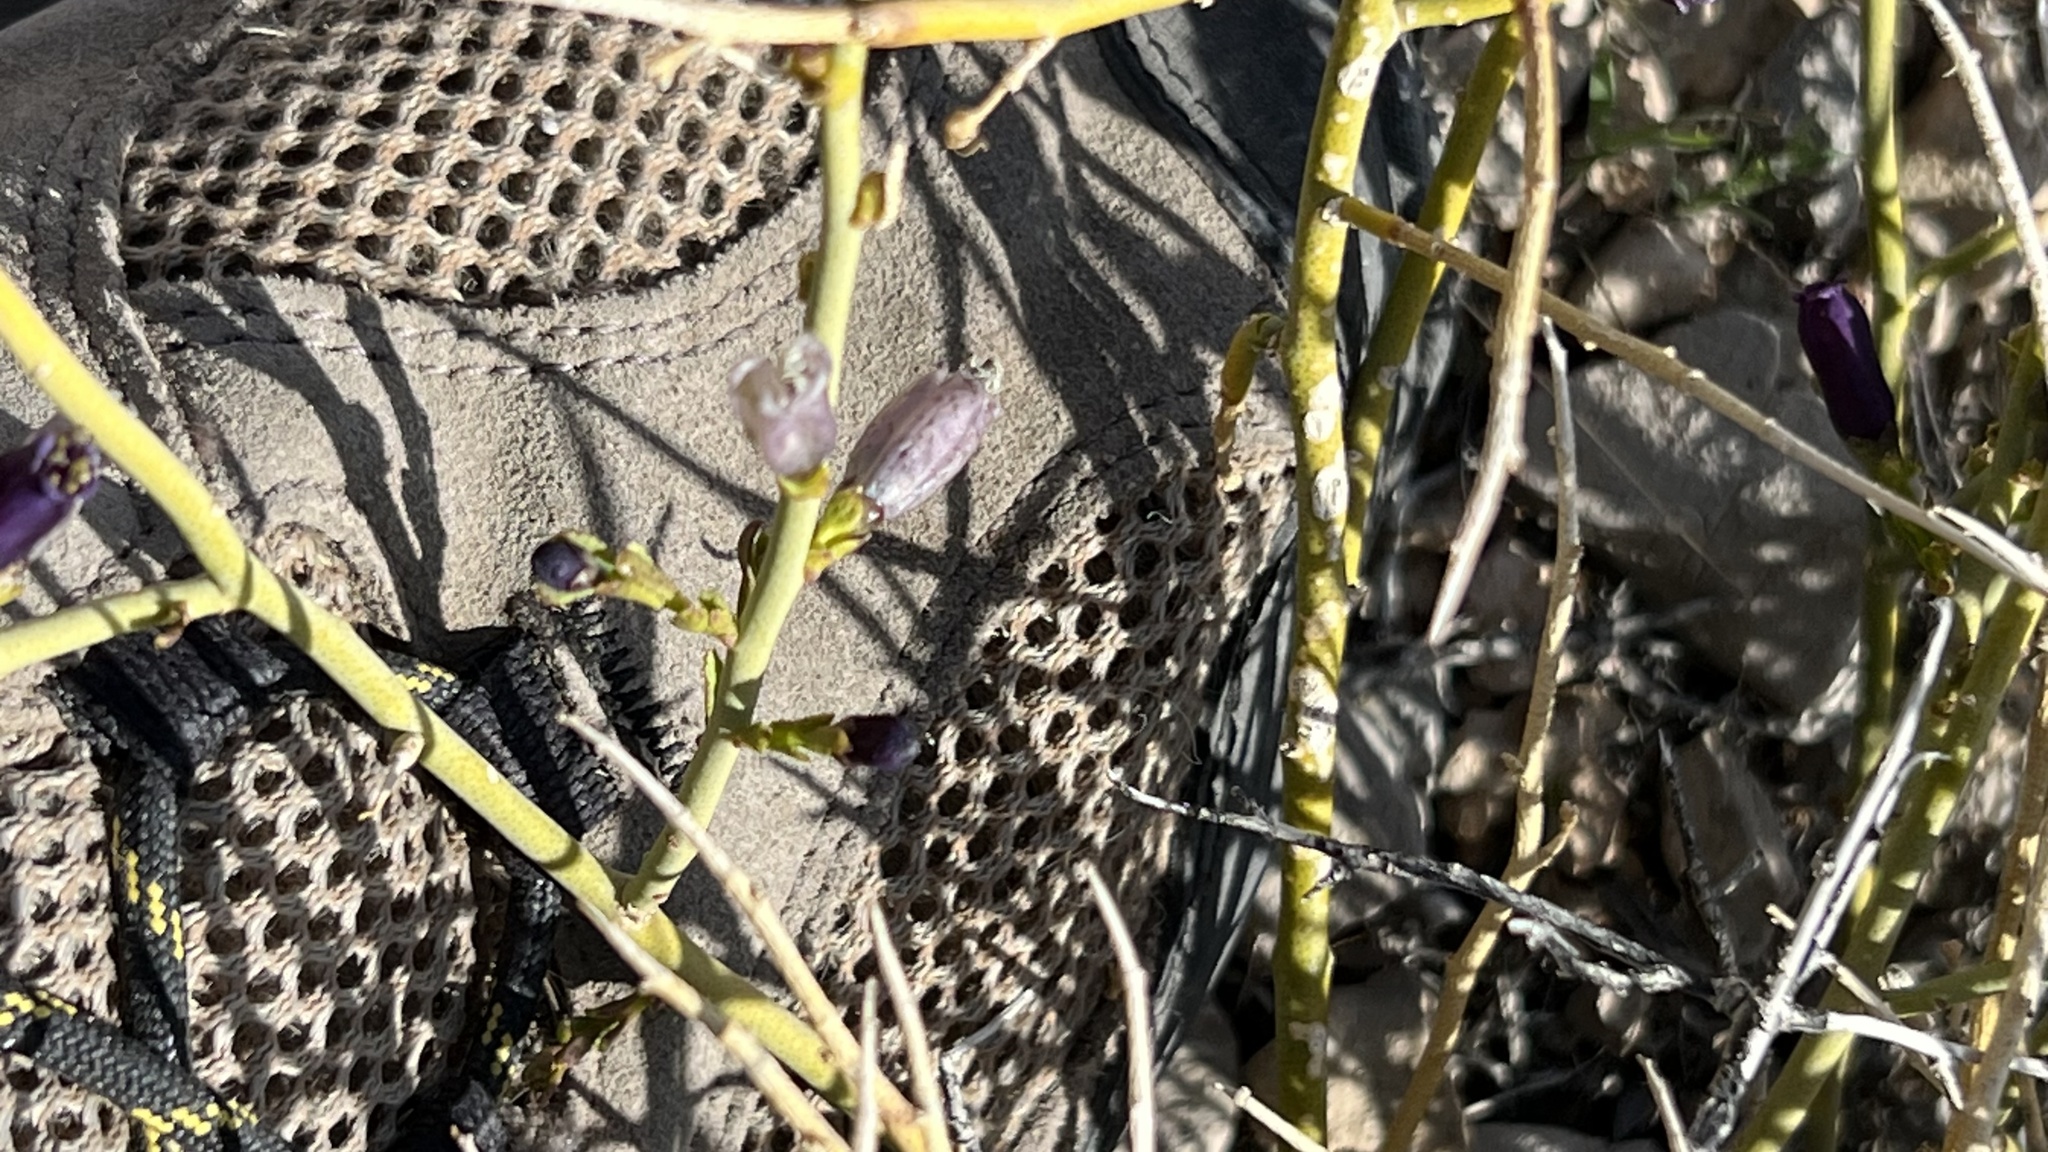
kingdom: Plantae
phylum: Tracheophyta
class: Magnoliopsida
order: Sapindales
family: Rutaceae
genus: Thamnosma
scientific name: Thamnosma montana
